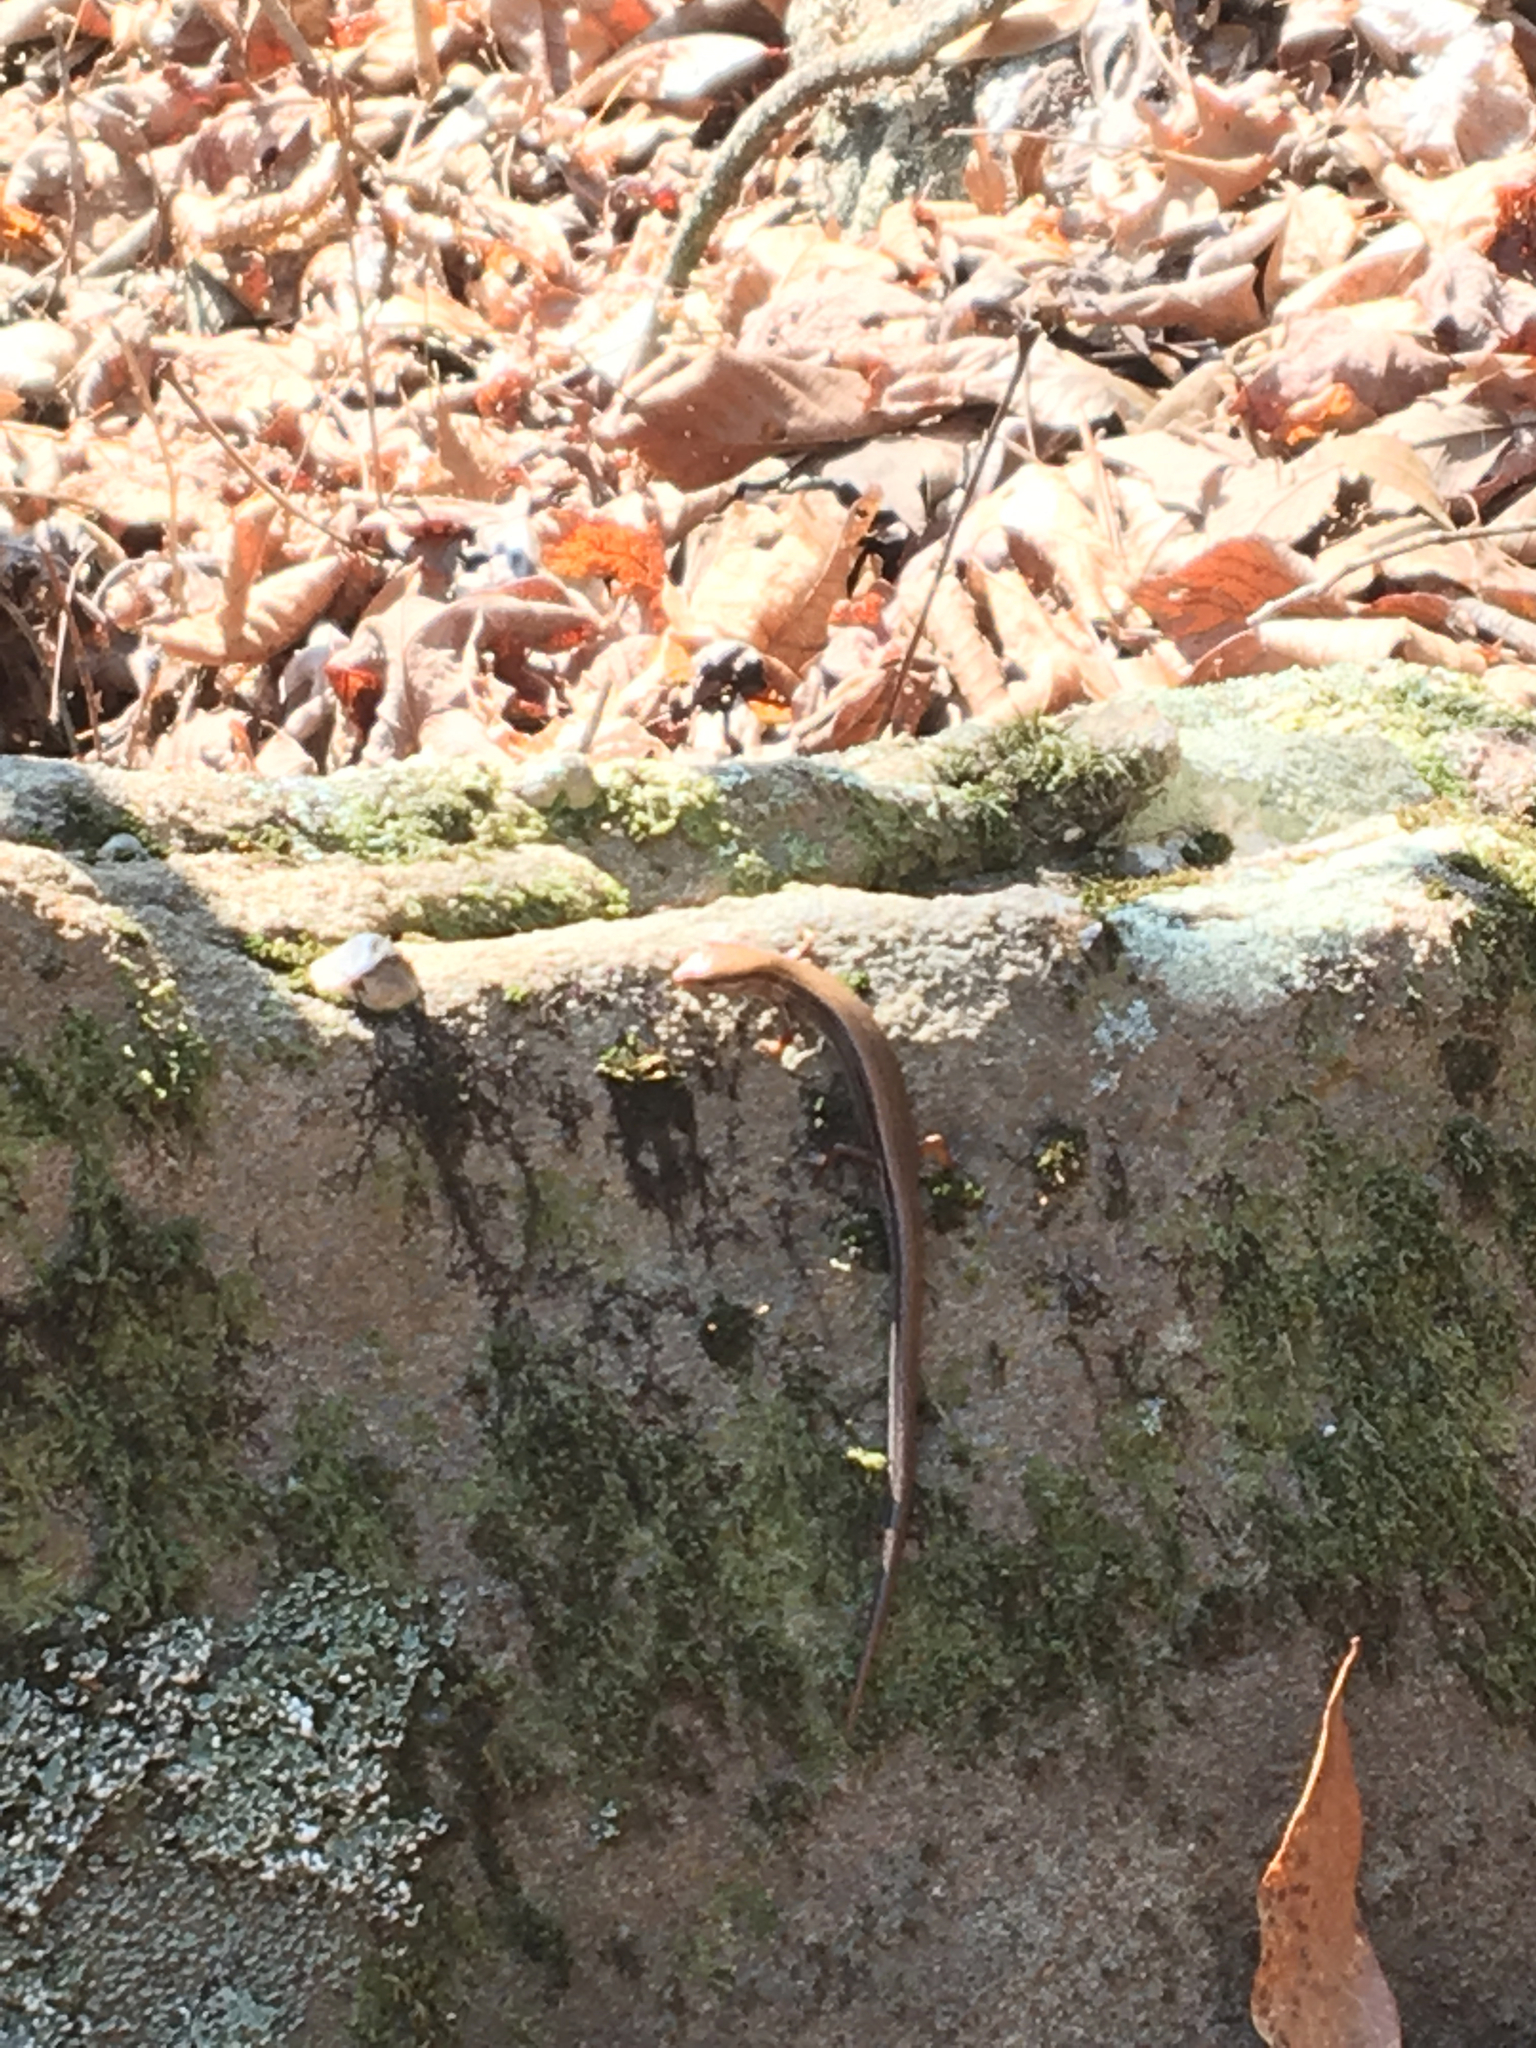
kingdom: Animalia
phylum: Chordata
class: Squamata
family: Scincidae
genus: Scincella
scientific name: Scincella lateralis
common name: Ground skink
